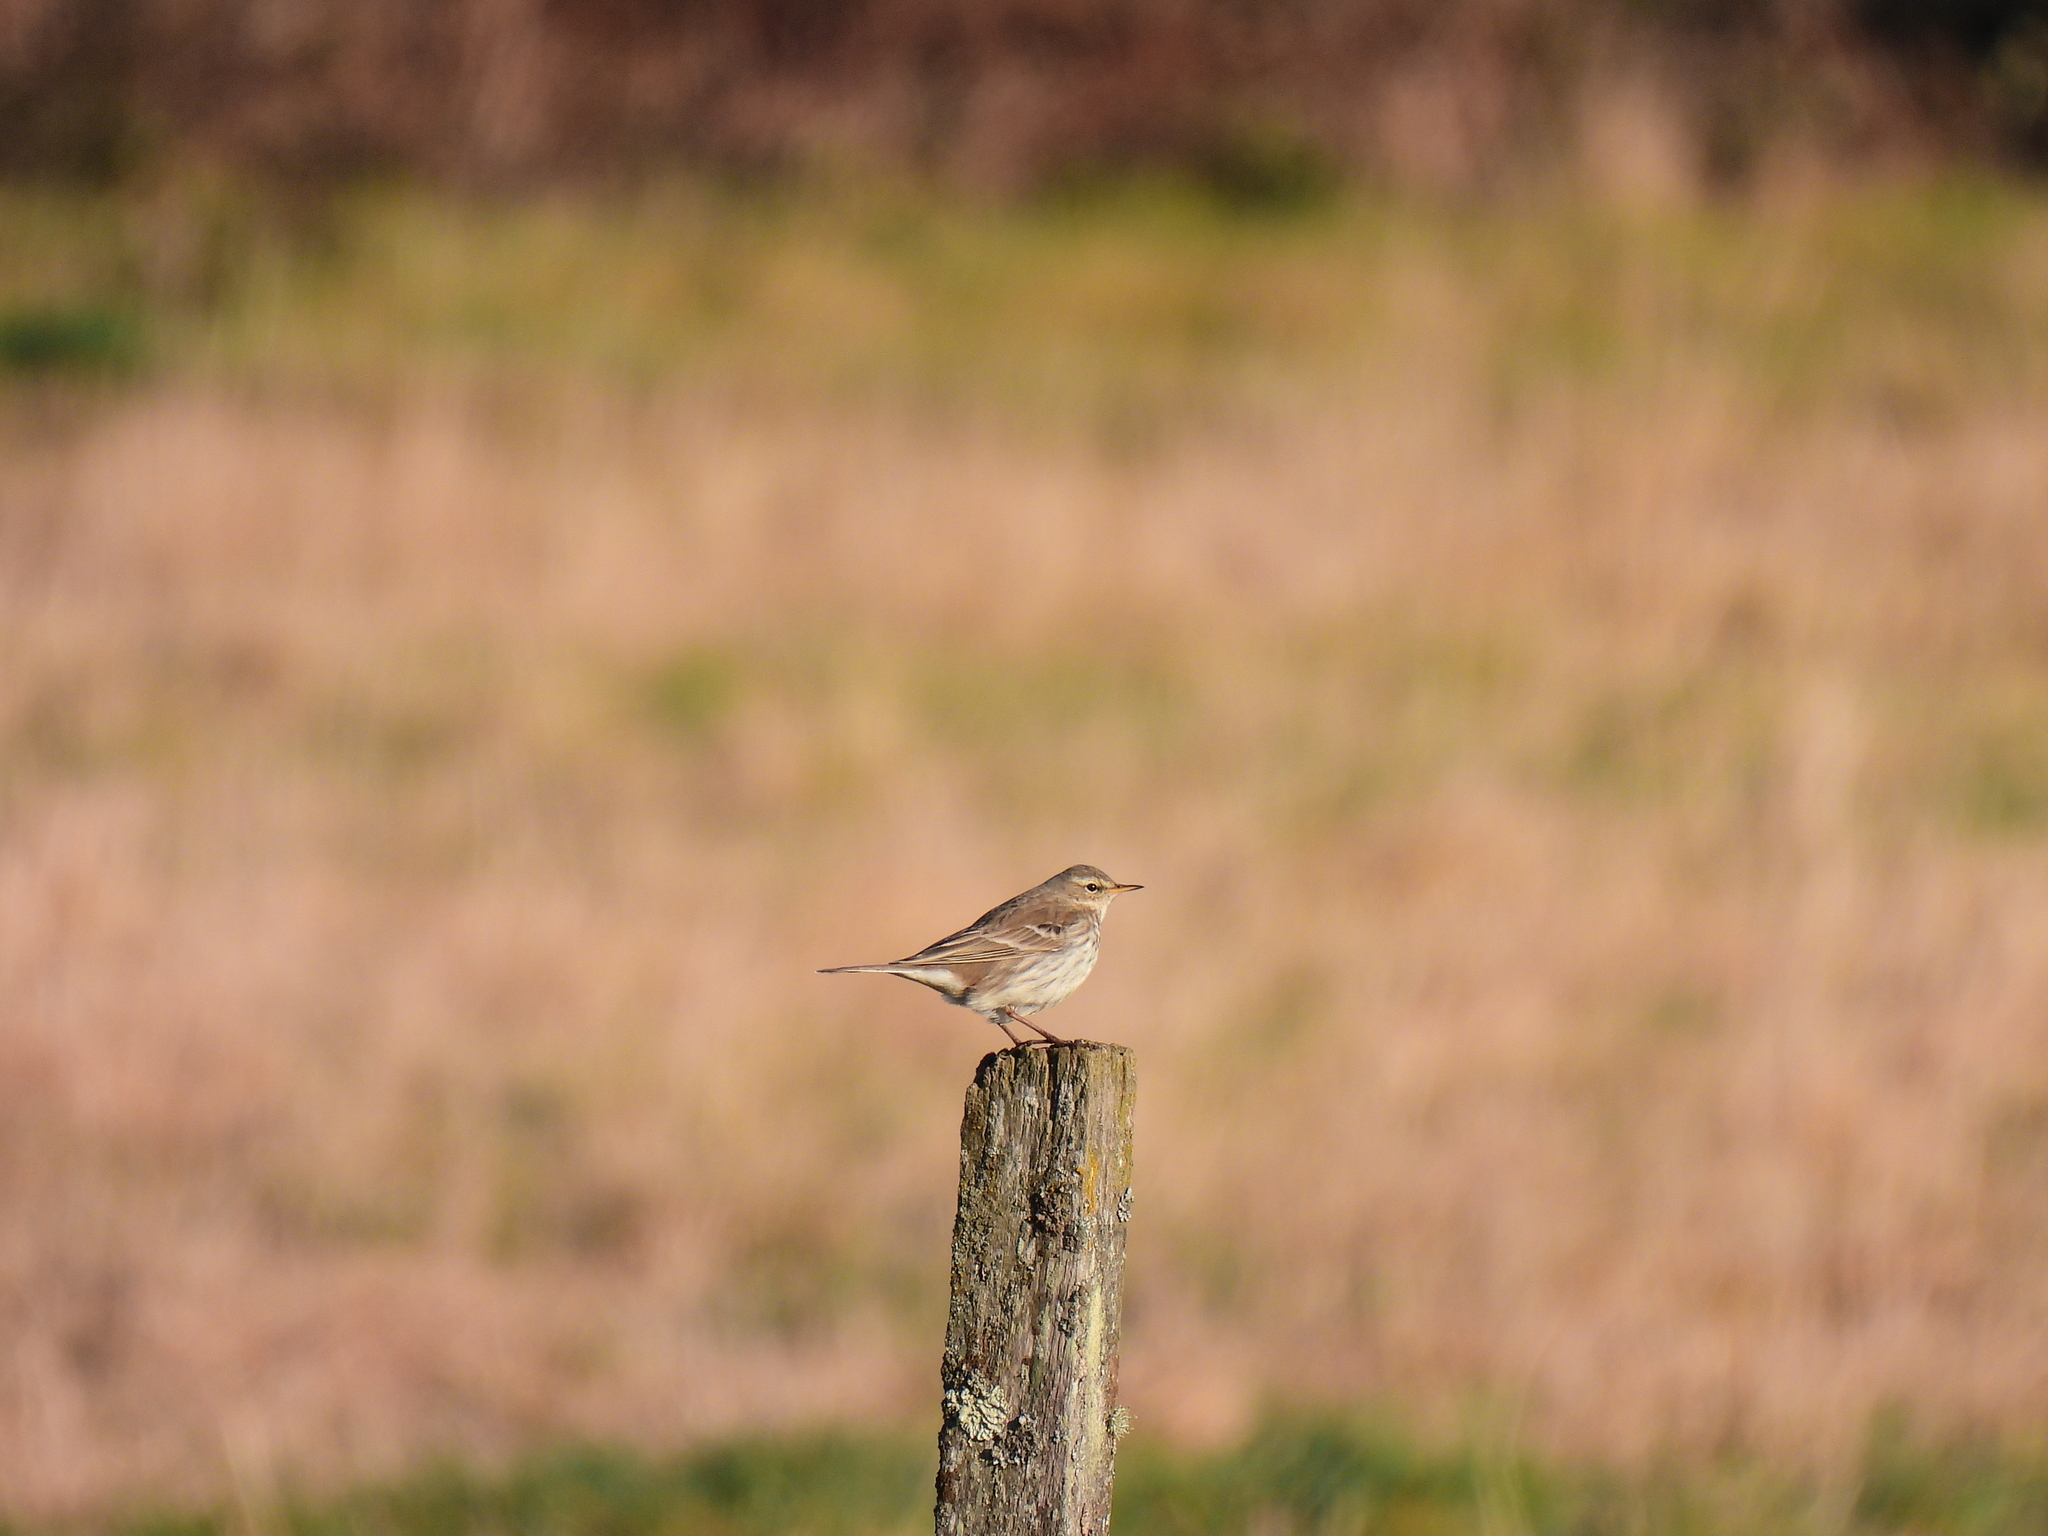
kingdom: Animalia
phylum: Chordata
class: Aves
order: Passeriformes
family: Motacillidae
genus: Anthus
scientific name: Anthus spinoletta
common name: Water pipit
